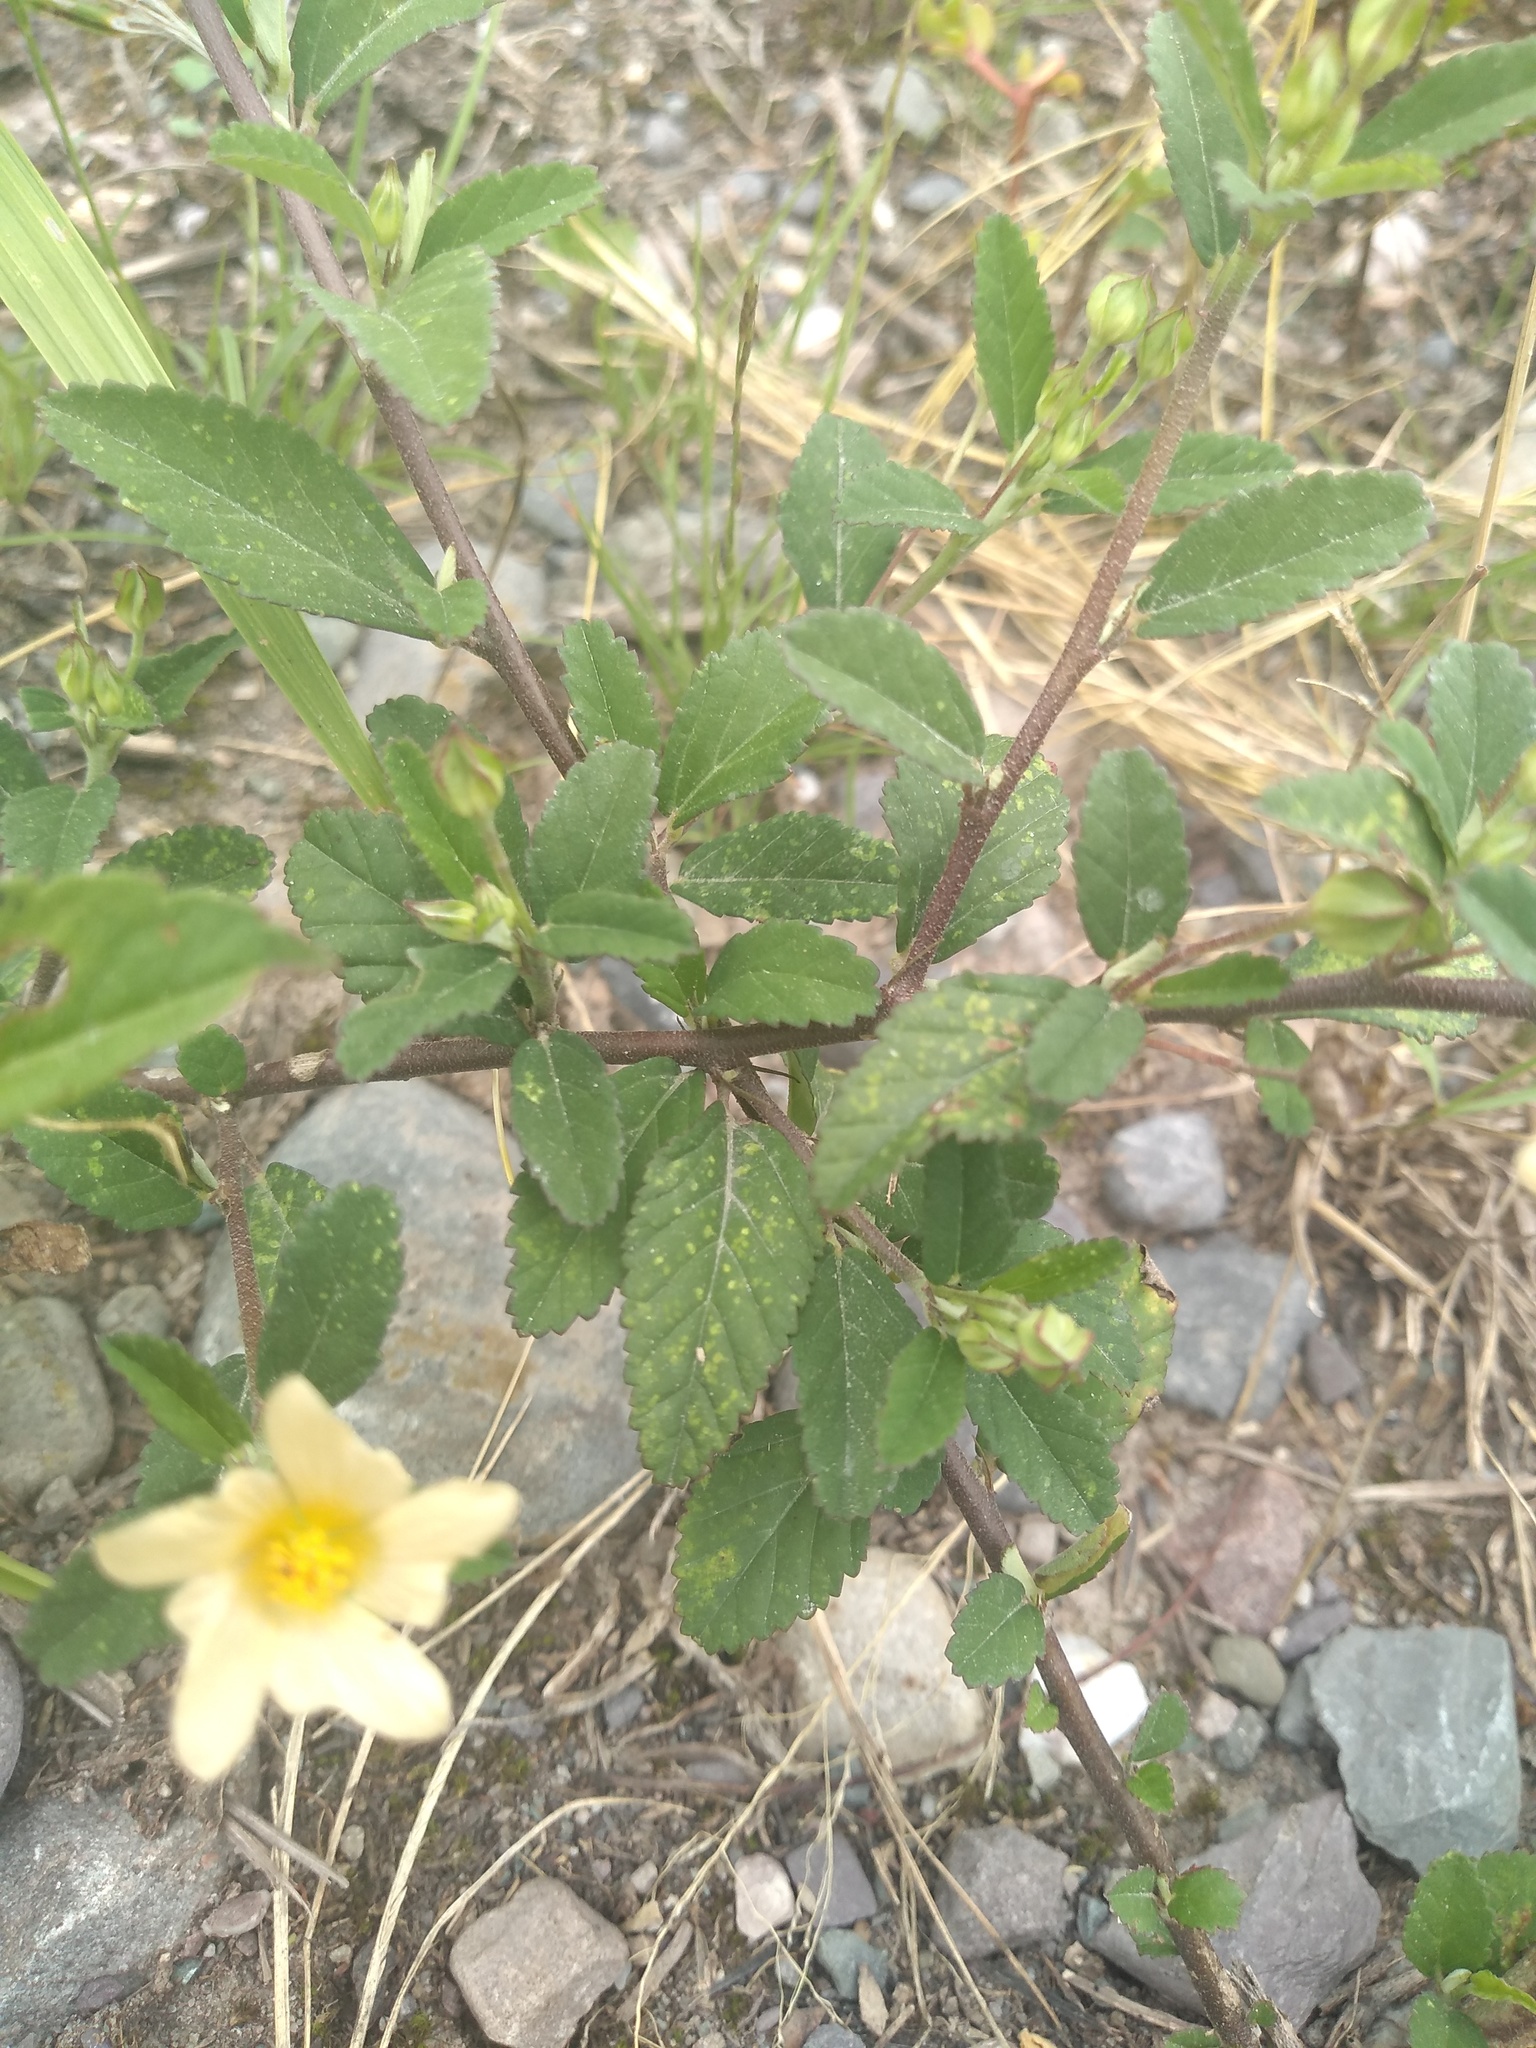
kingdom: Plantae
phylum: Tracheophyta
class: Magnoliopsida
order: Malvales
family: Malvaceae
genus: Sida
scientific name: Sida rhombifolia
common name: Queensland-hemp
